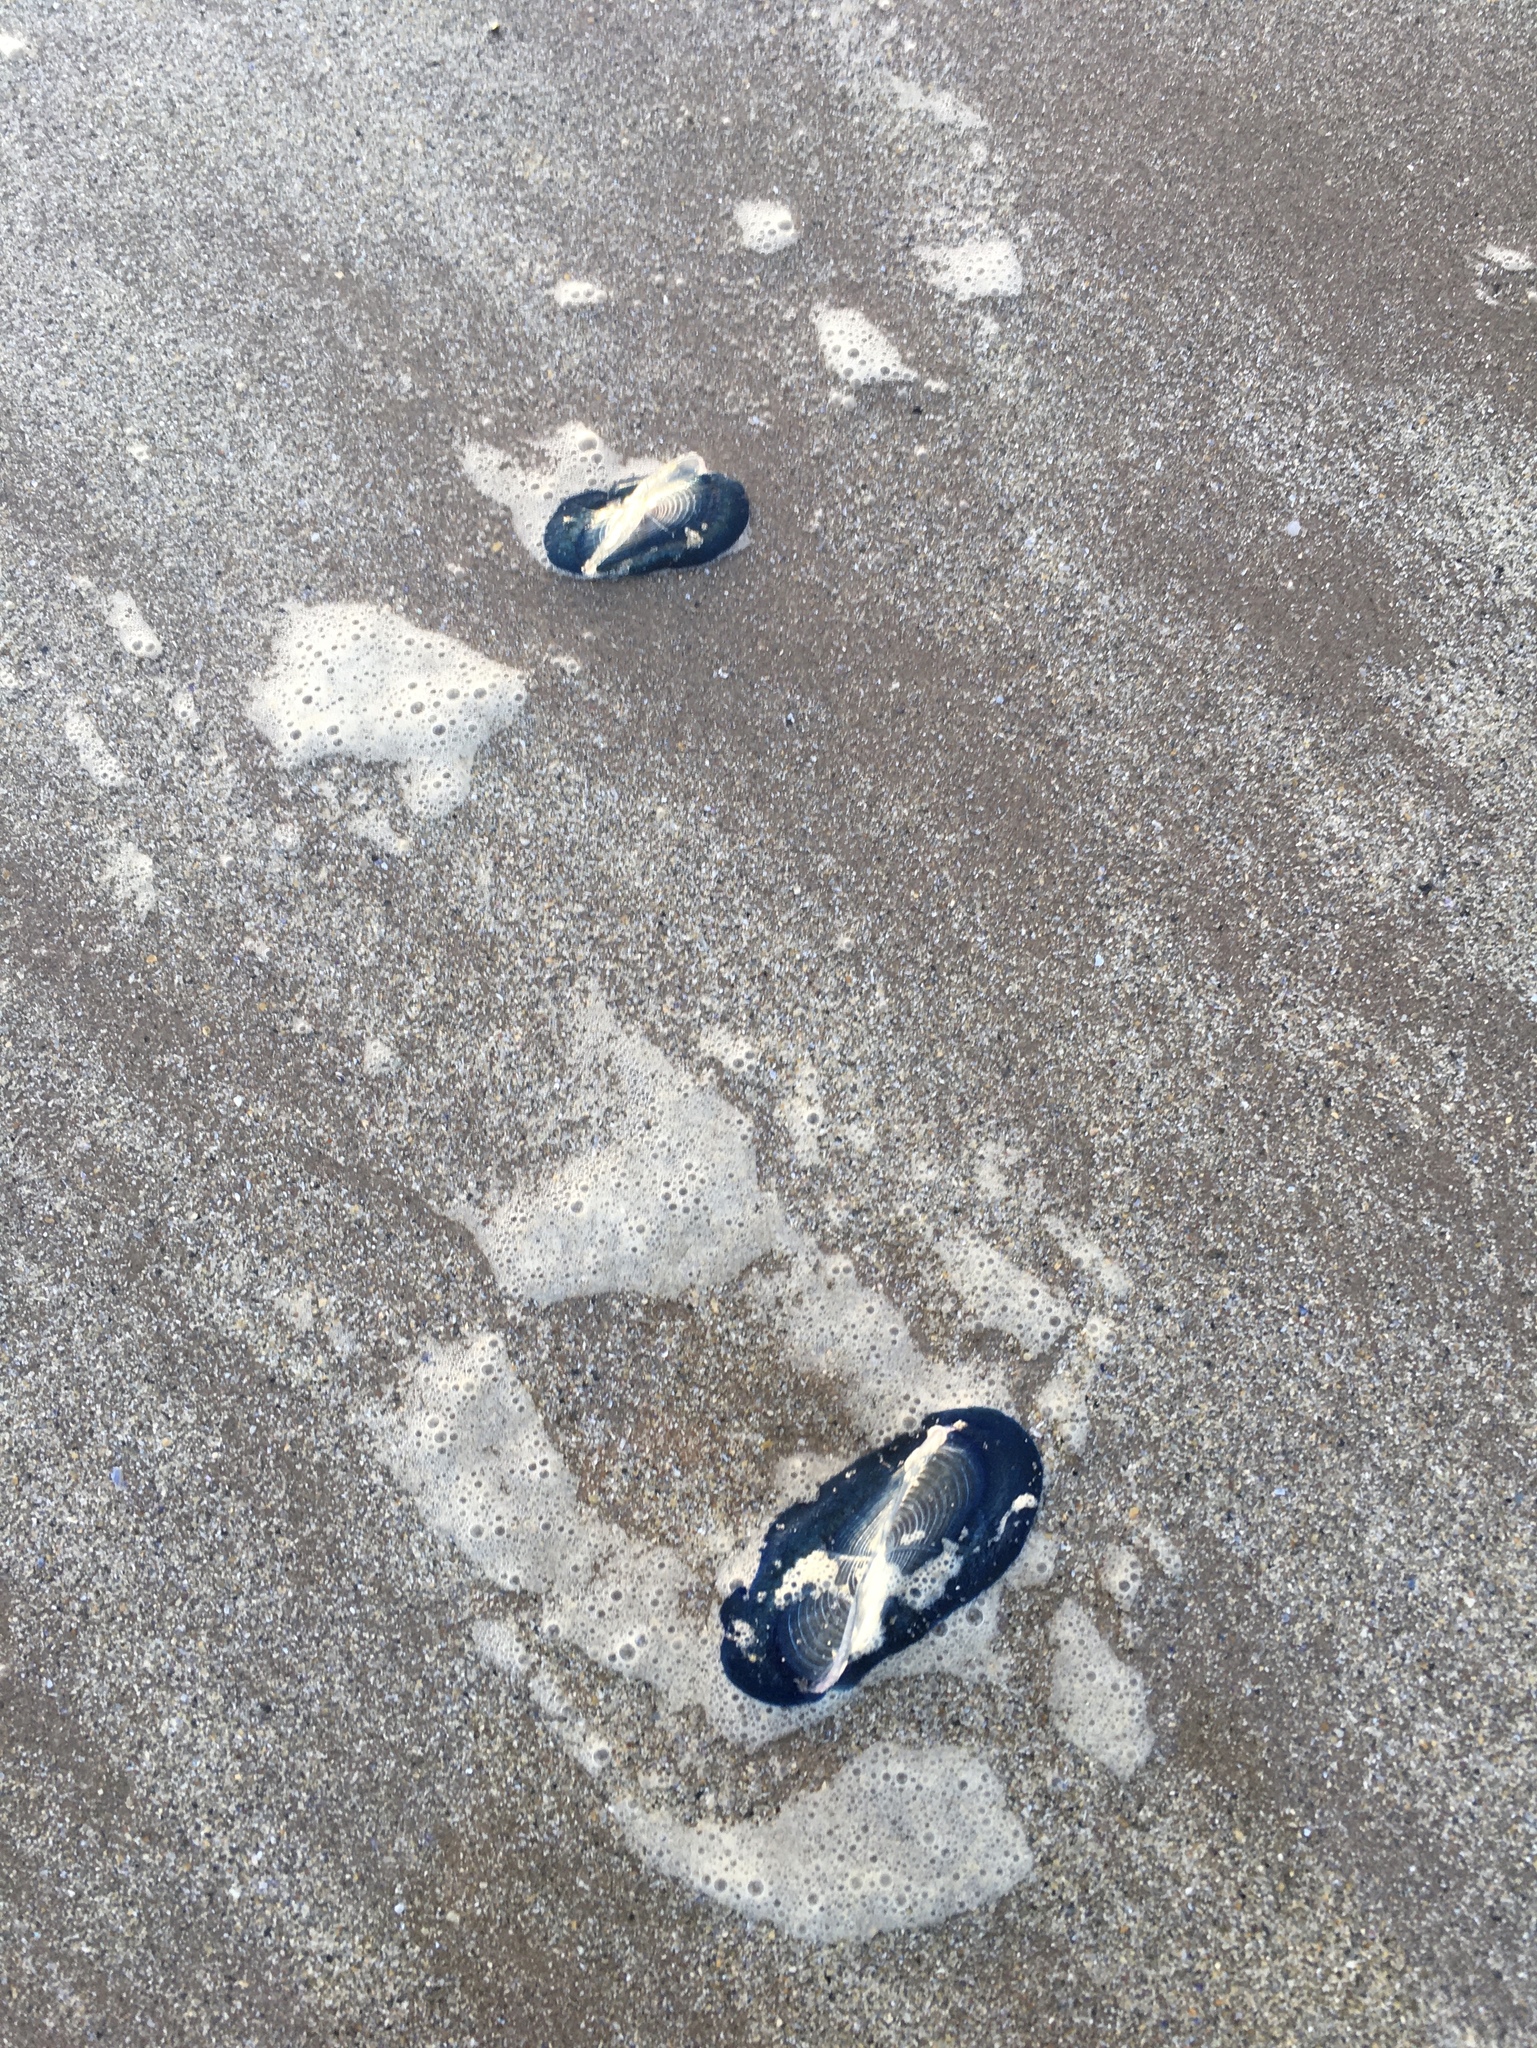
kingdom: Animalia
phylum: Cnidaria
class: Hydrozoa
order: Anthoathecata
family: Porpitidae
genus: Velella
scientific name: Velella velella
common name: By-the-wind-sailor
